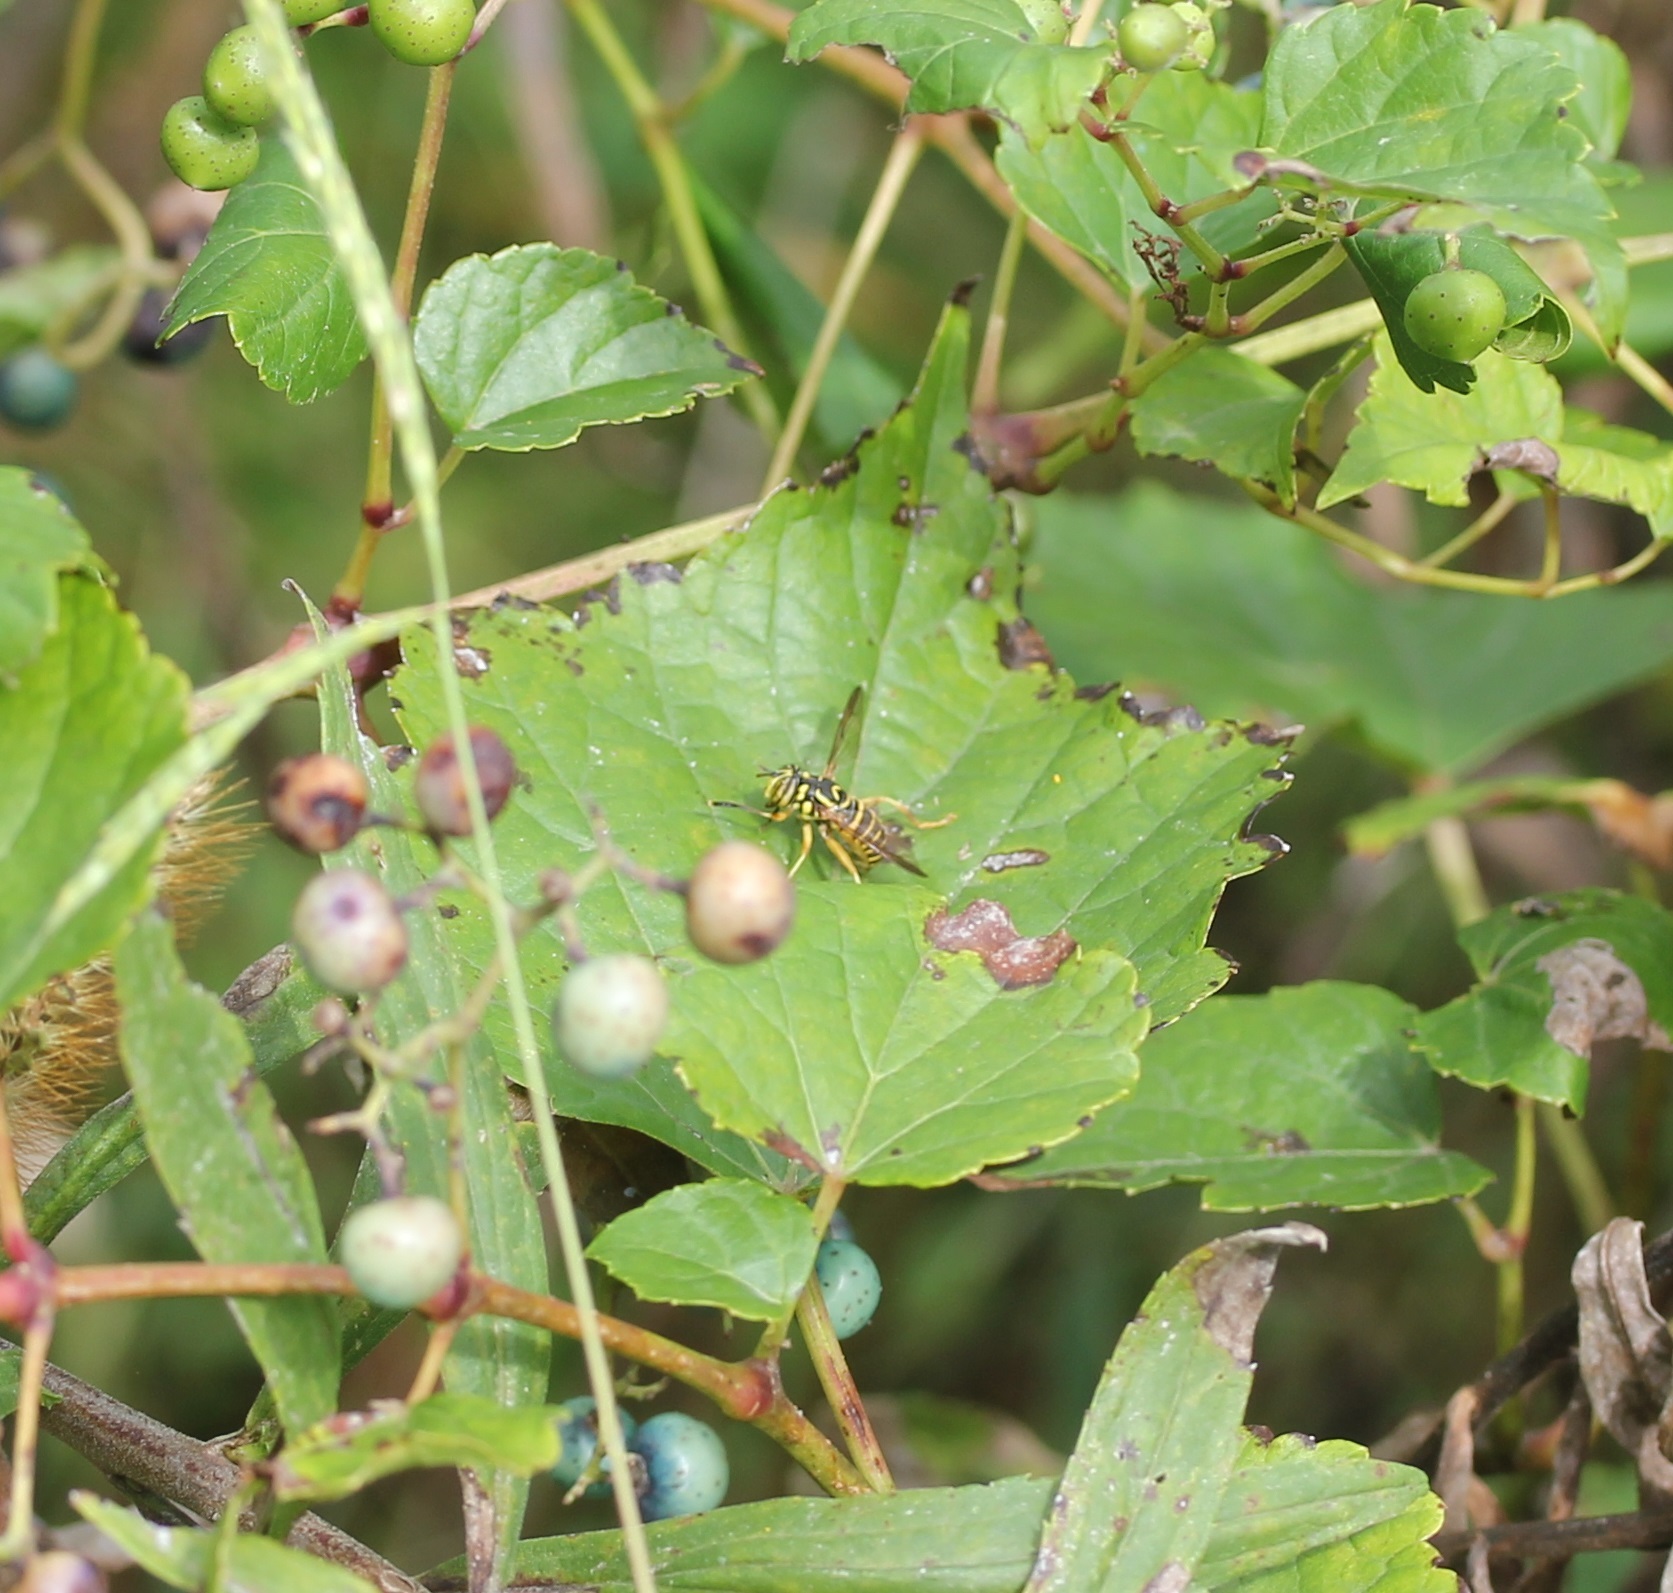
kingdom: Animalia
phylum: Arthropoda
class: Insecta
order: Diptera
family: Syrphidae
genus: Spilomyia
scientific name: Spilomyia longicornis
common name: Eastern hornet fly
